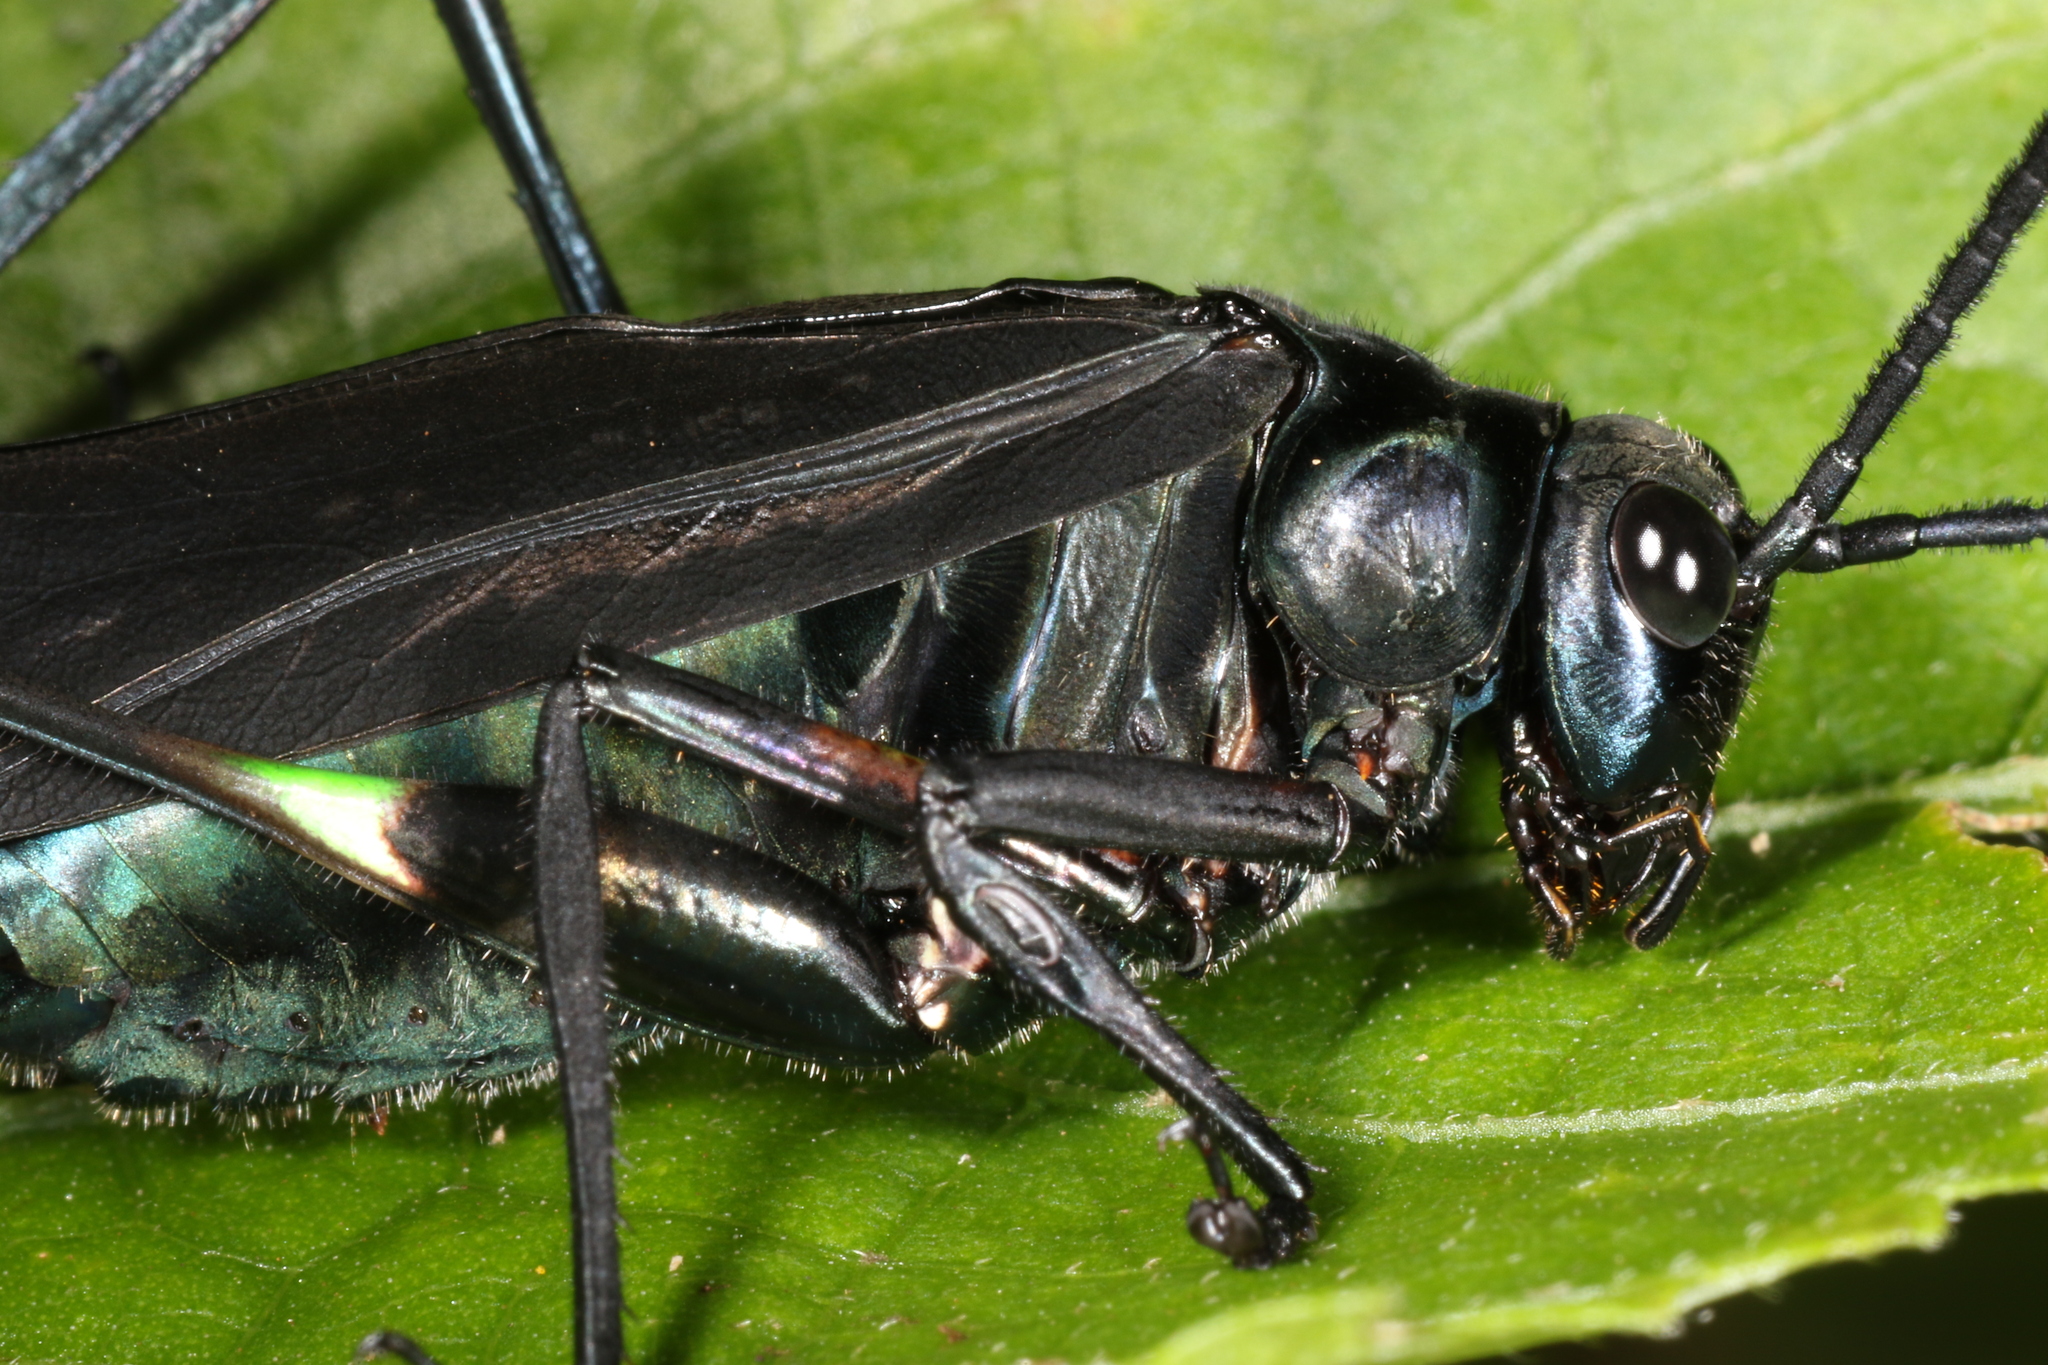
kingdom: Animalia
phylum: Arthropoda
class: Insecta
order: Orthoptera
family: Tettigoniidae
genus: Scaphura
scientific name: Scaphura nigra
